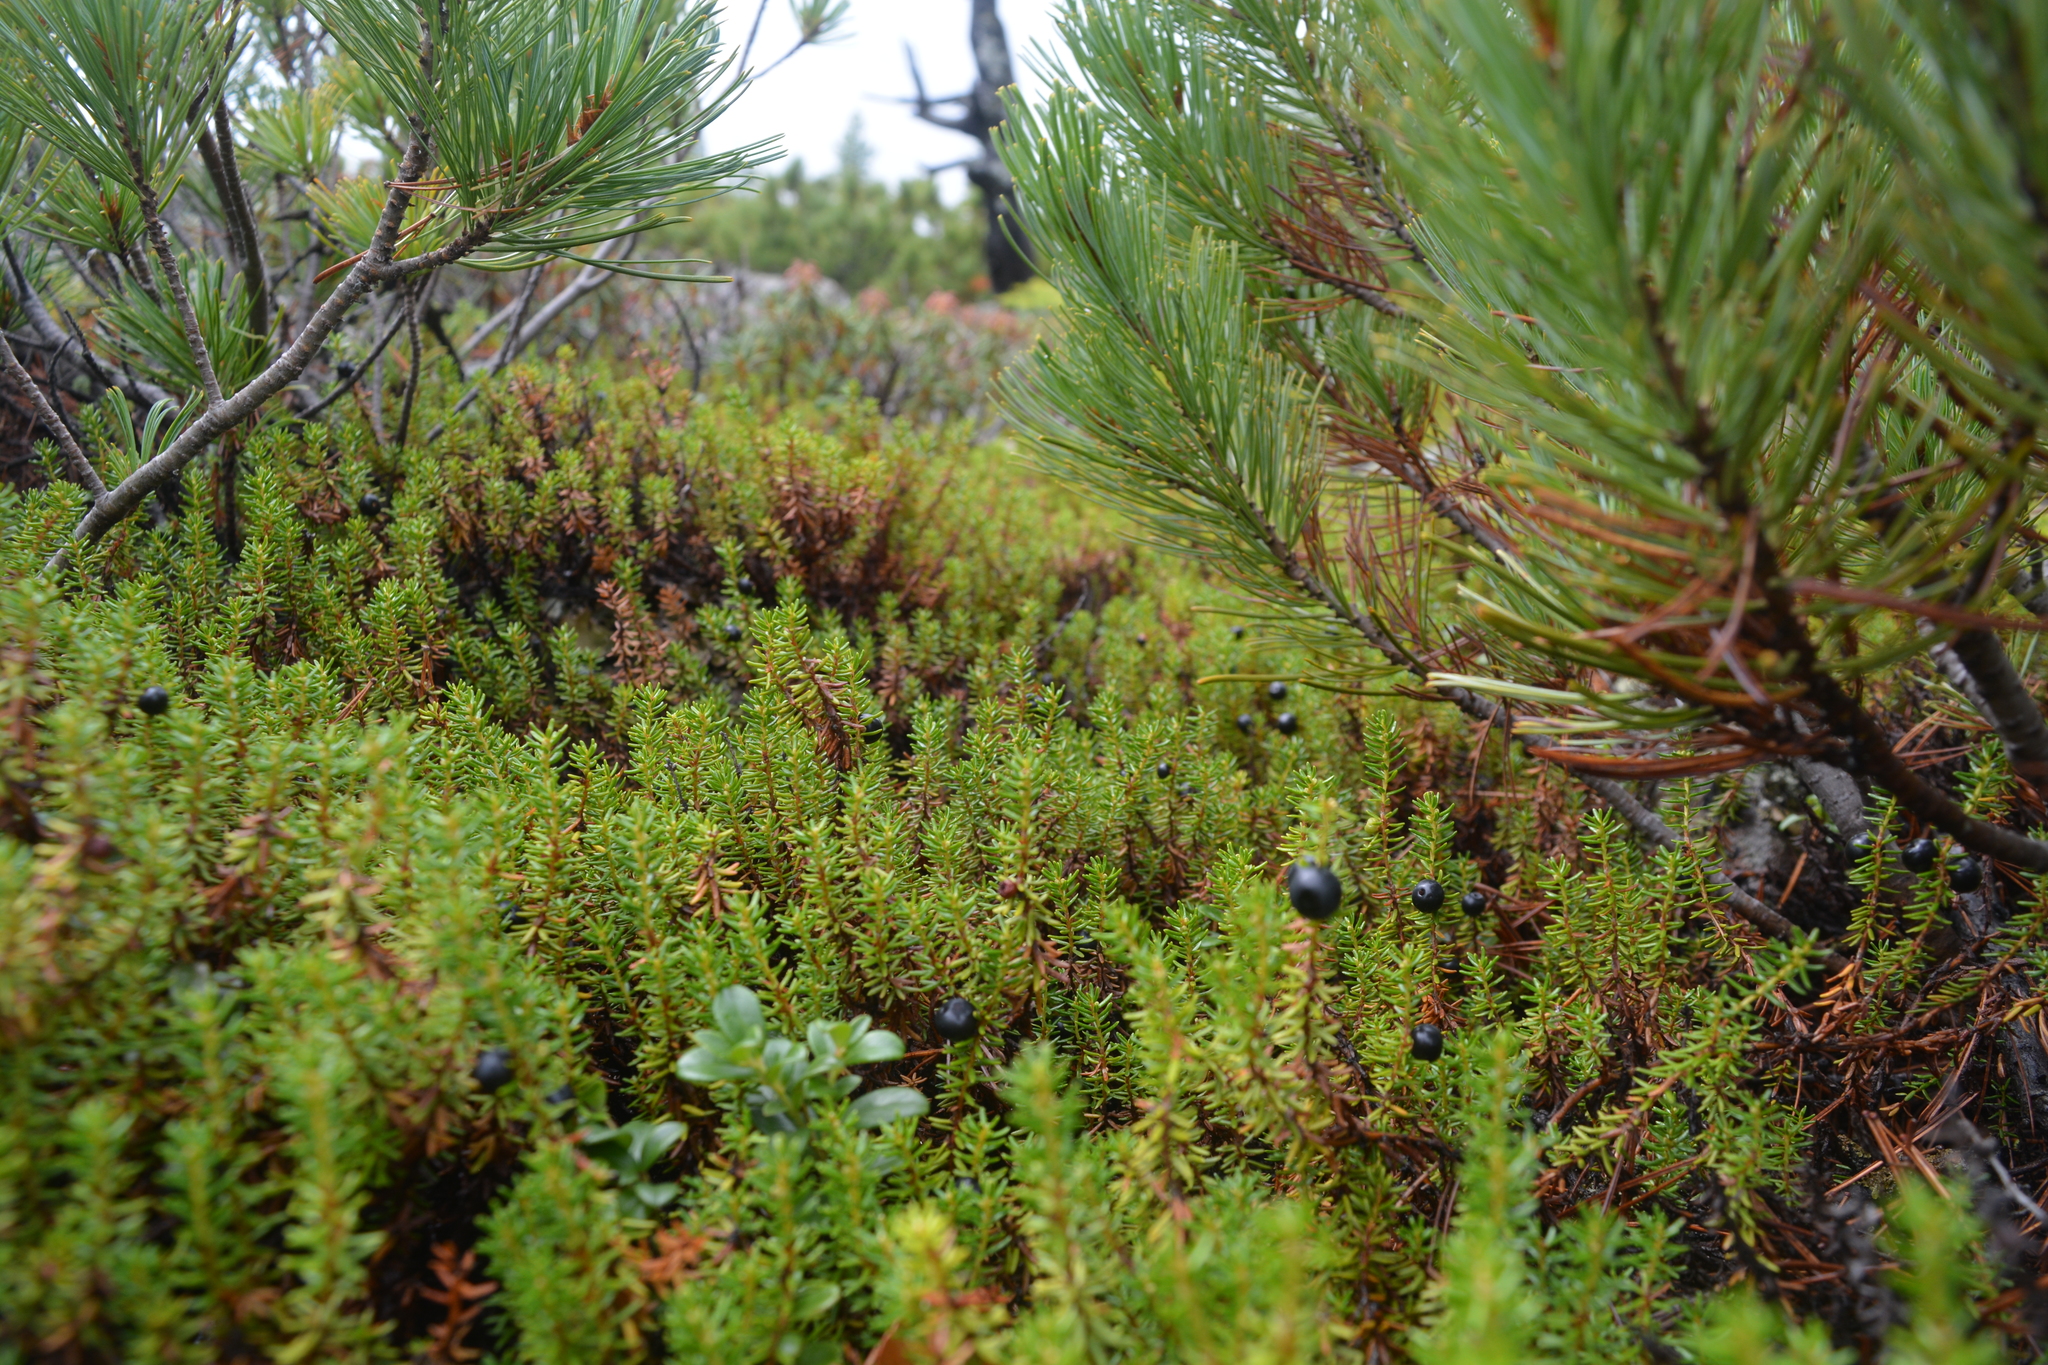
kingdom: Plantae
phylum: Tracheophyta
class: Magnoliopsida
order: Ericales
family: Ericaceae
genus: Empetrum
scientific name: Empetrum nigrum
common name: Black crowberry
